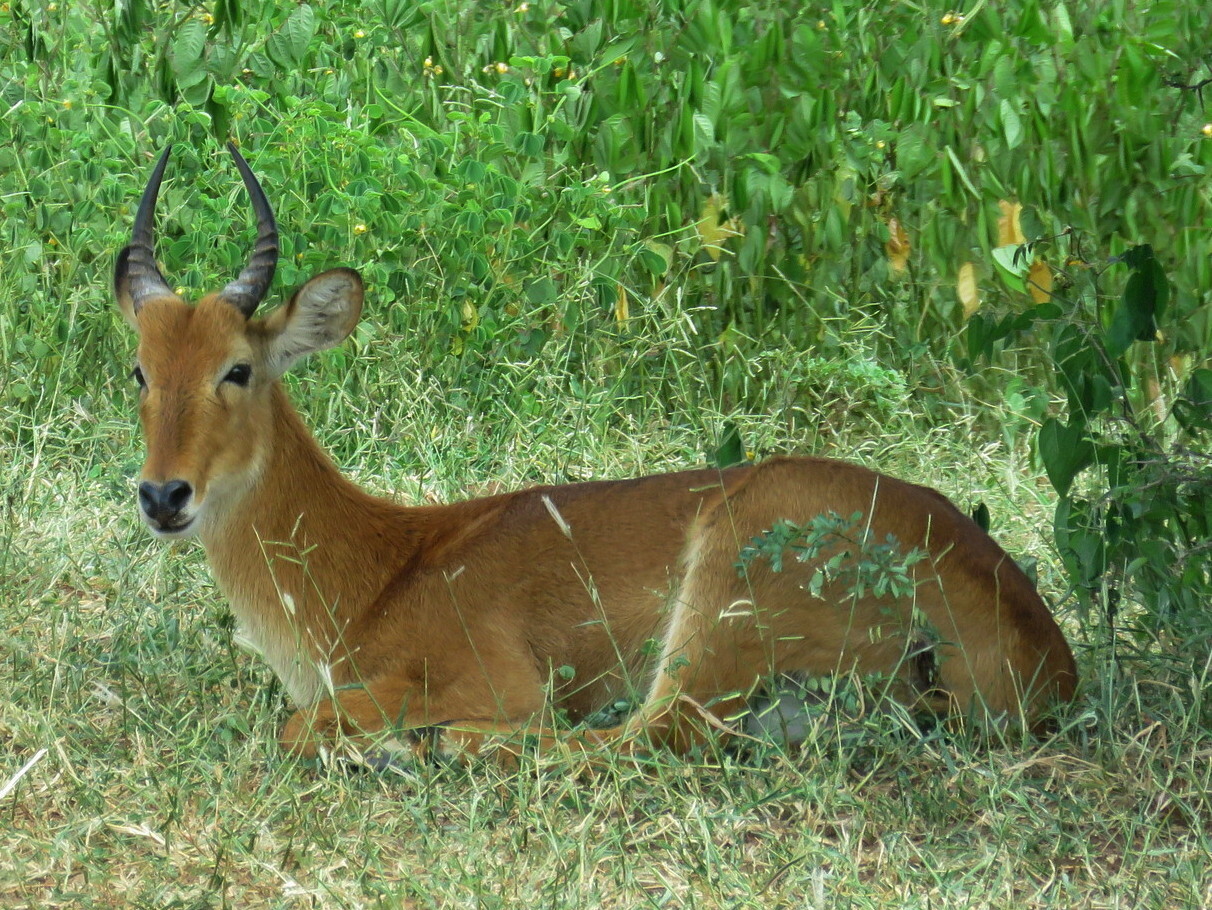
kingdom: Animalia
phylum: Chordata
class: Mammalia
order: Artiodactyla
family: Bovidae
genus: Kobus
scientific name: Kobus vardonii
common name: Puku
